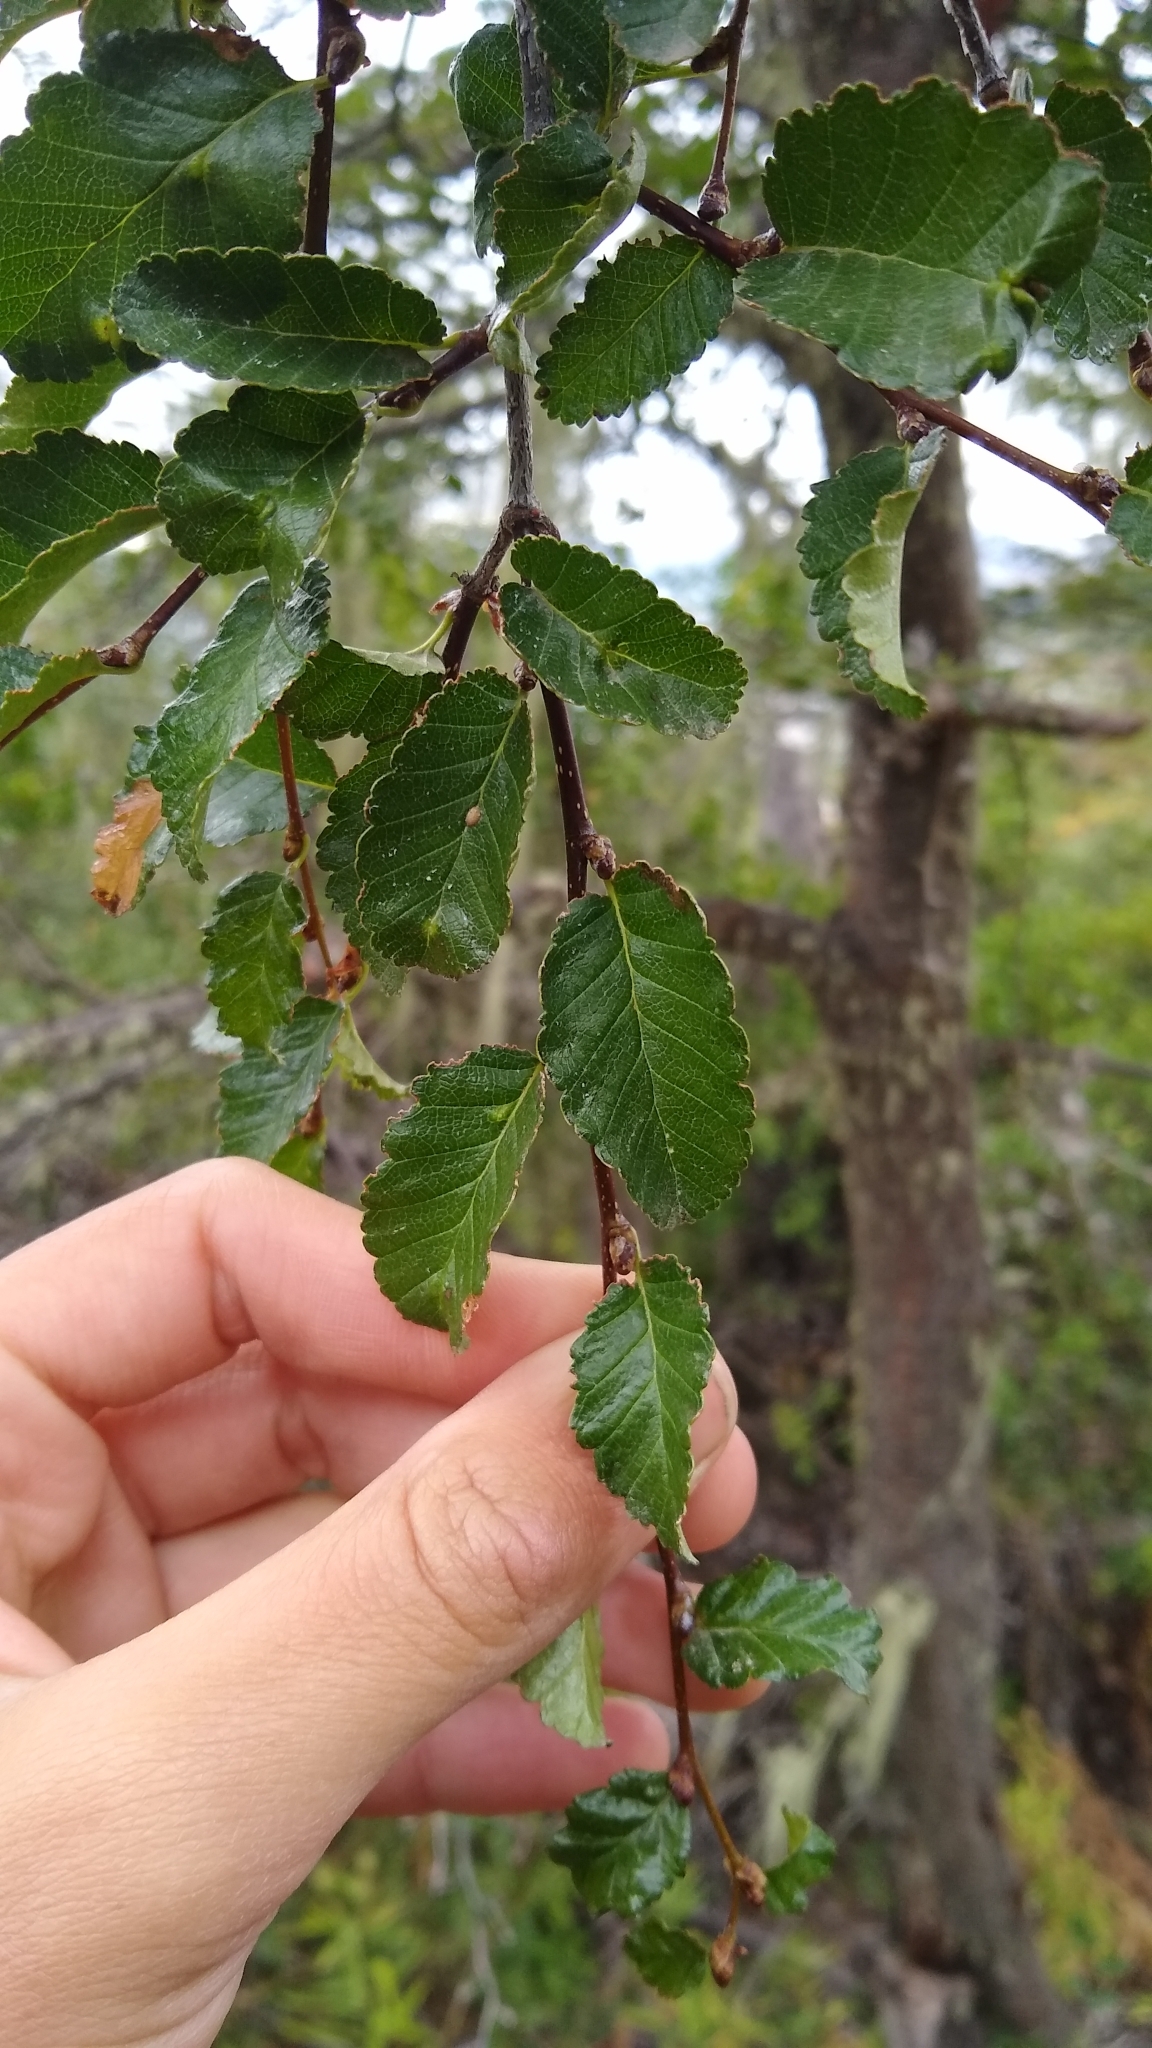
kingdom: Plantae
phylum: Tracheophyta
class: Magnoliopsida
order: Fagales
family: Nothofagaceae
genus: Nothofagus
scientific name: Nothofagus pumilio
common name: Lenga beech
